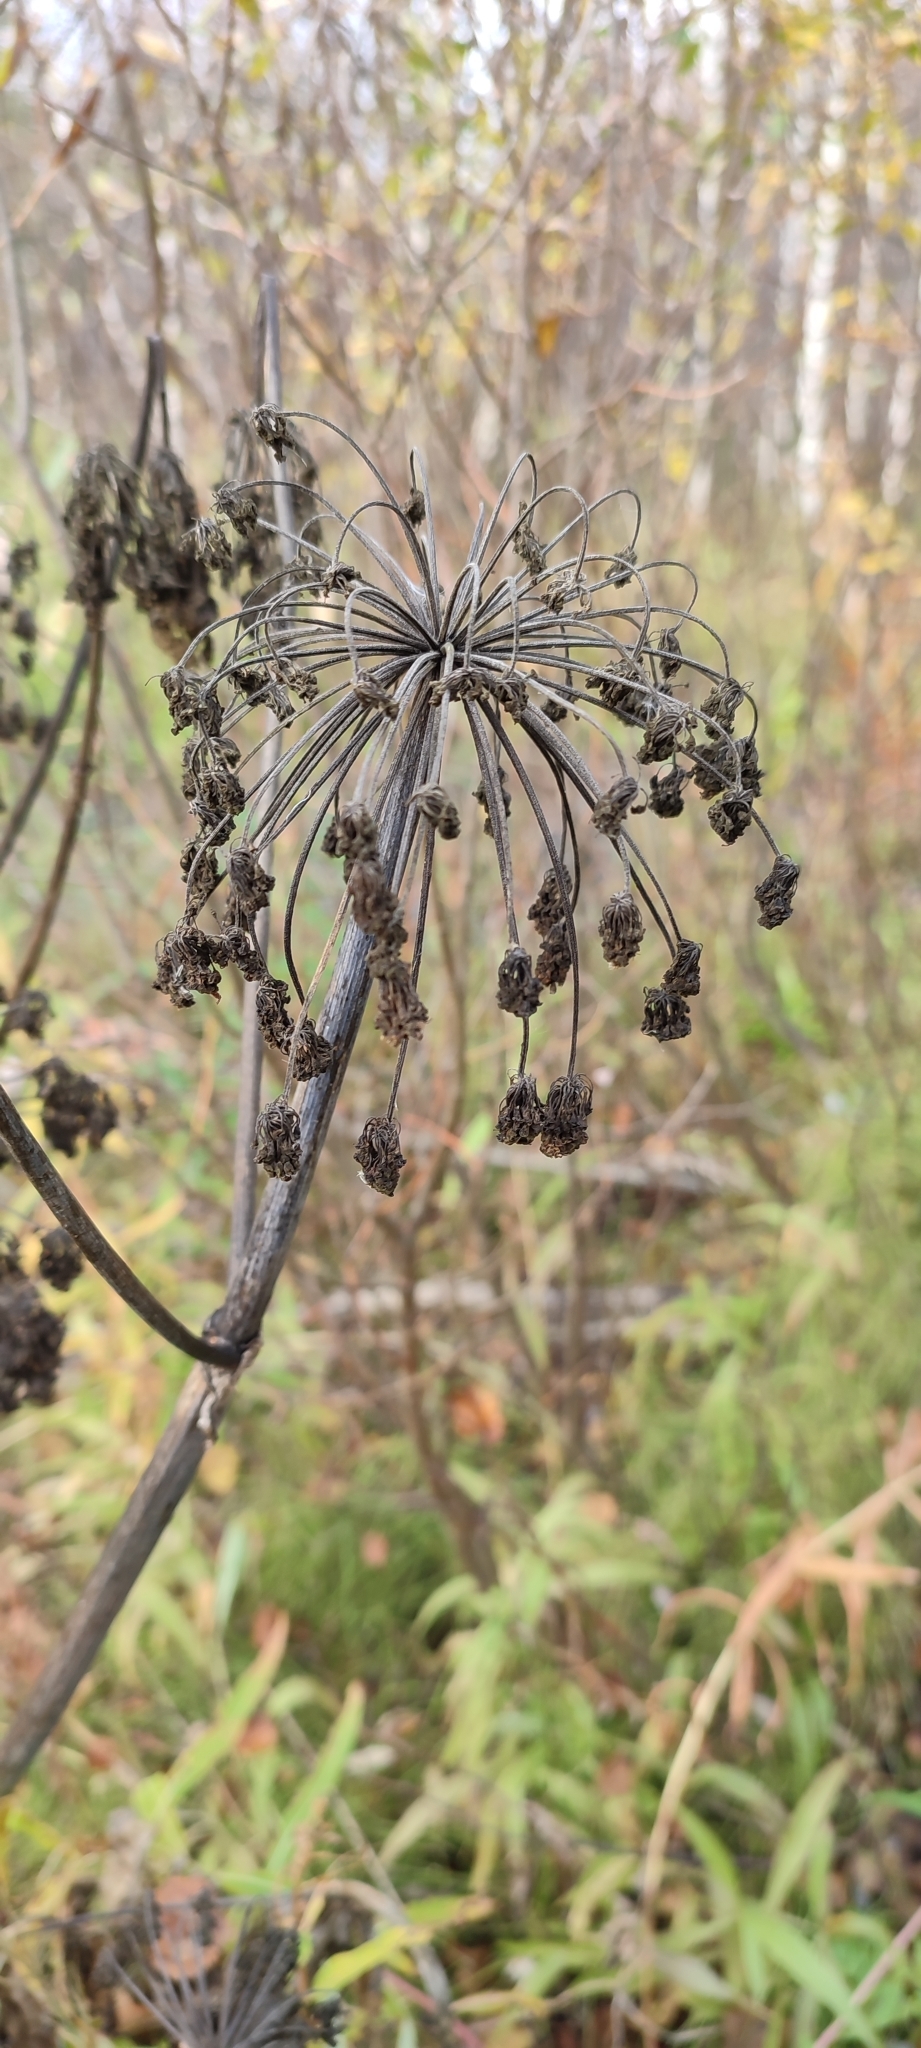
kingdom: Plantae
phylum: Tracheophyta
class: Magnoliopsida
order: Apiales
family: Apiaceae
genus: Angelica
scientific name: Angelica decurrens
